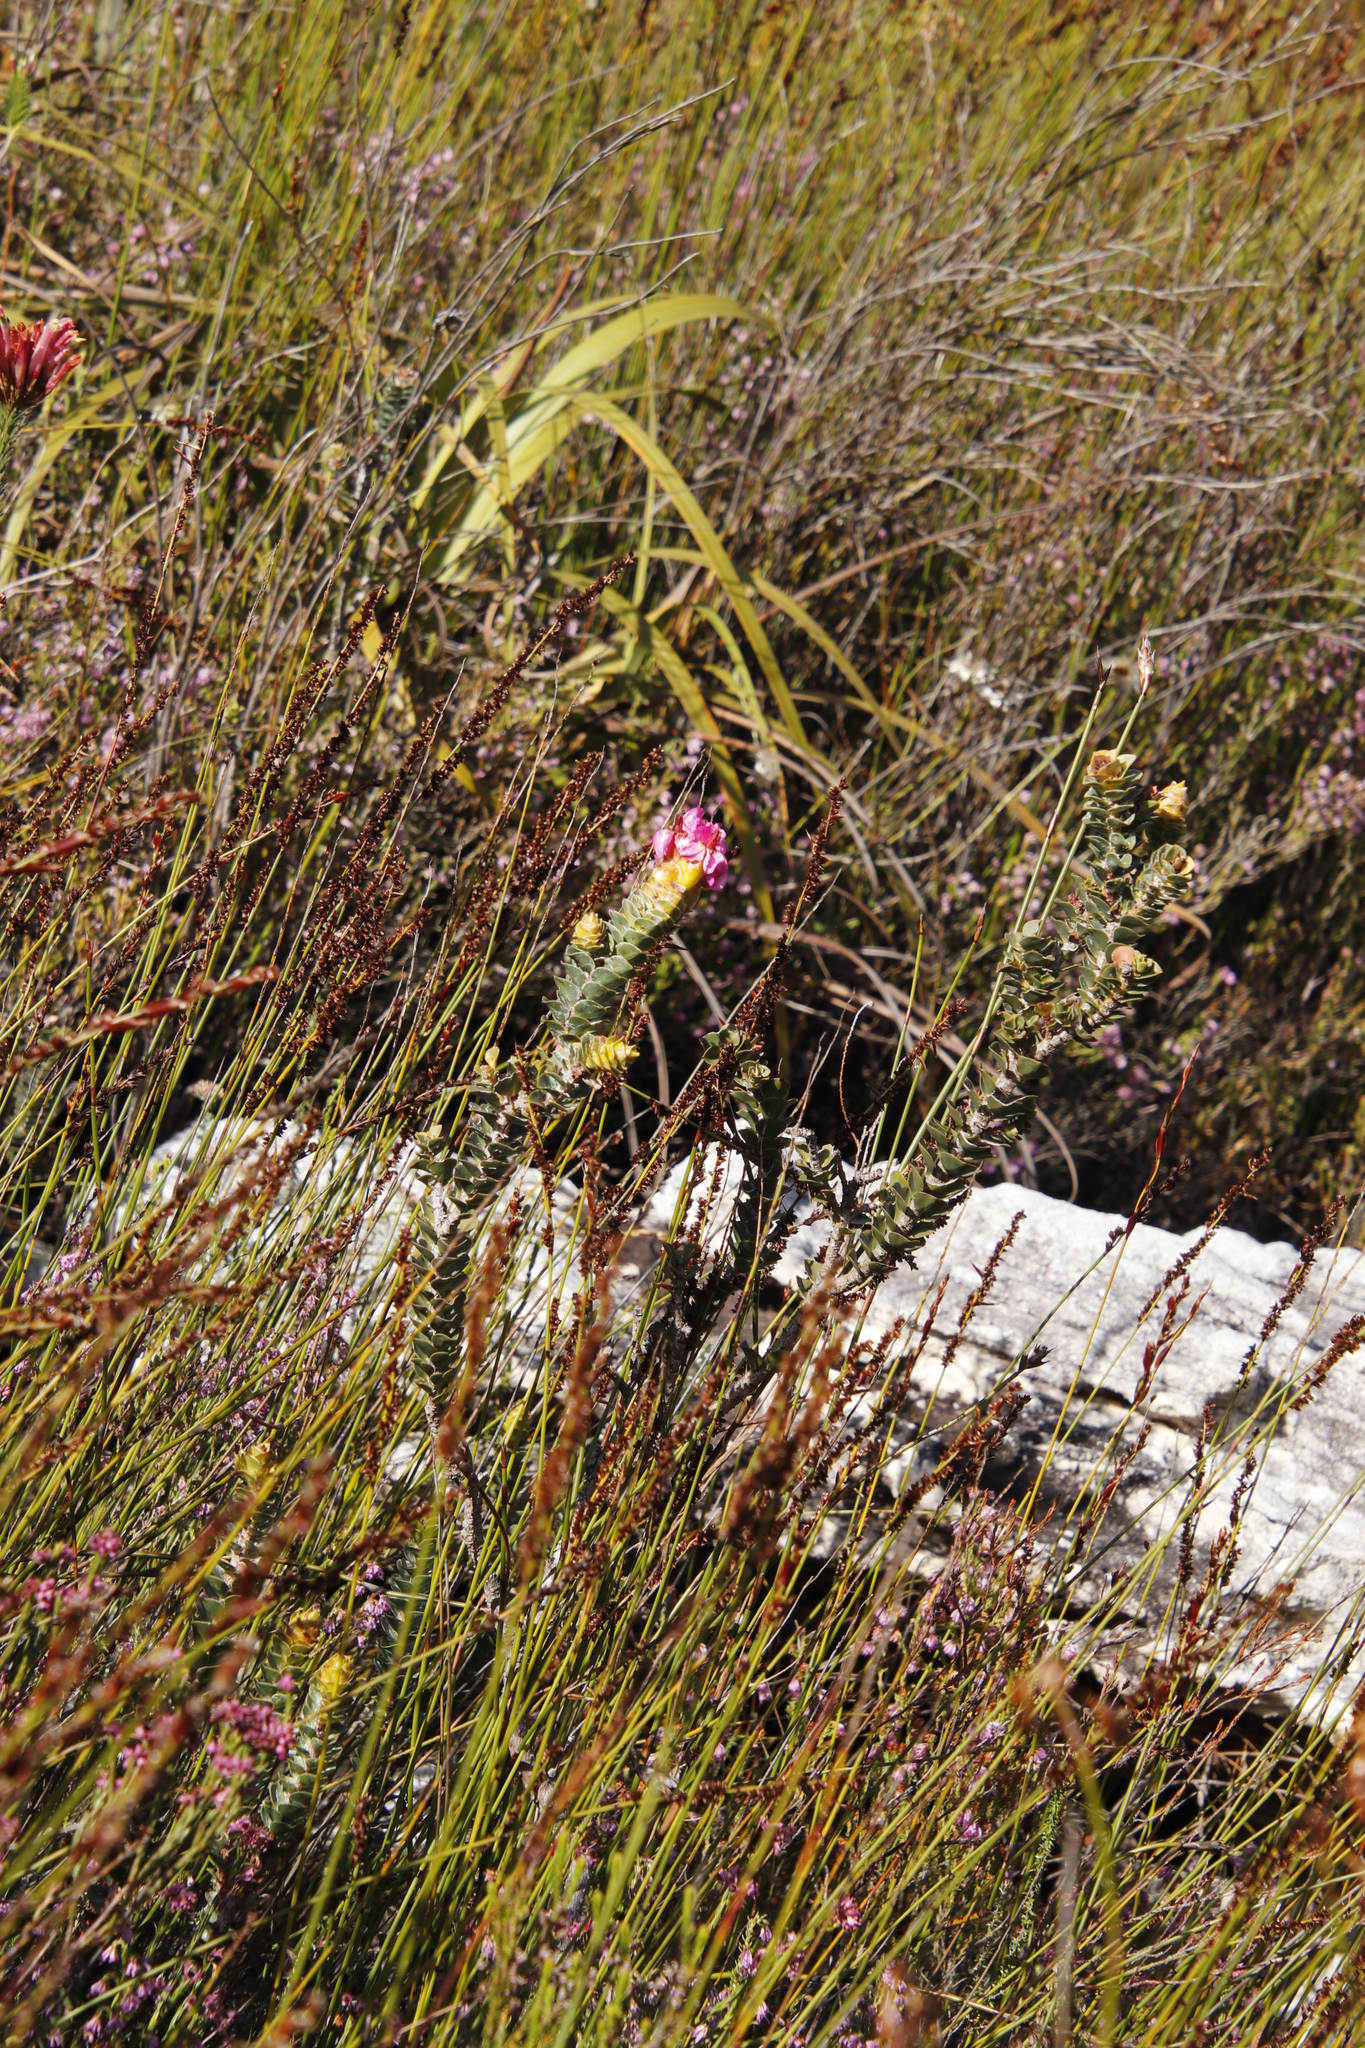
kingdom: Plantae
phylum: Tracheophyta
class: Magnoliopsida
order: Myrtales
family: Penaeaceae
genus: Saltera
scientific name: Saltera sarcocolla
